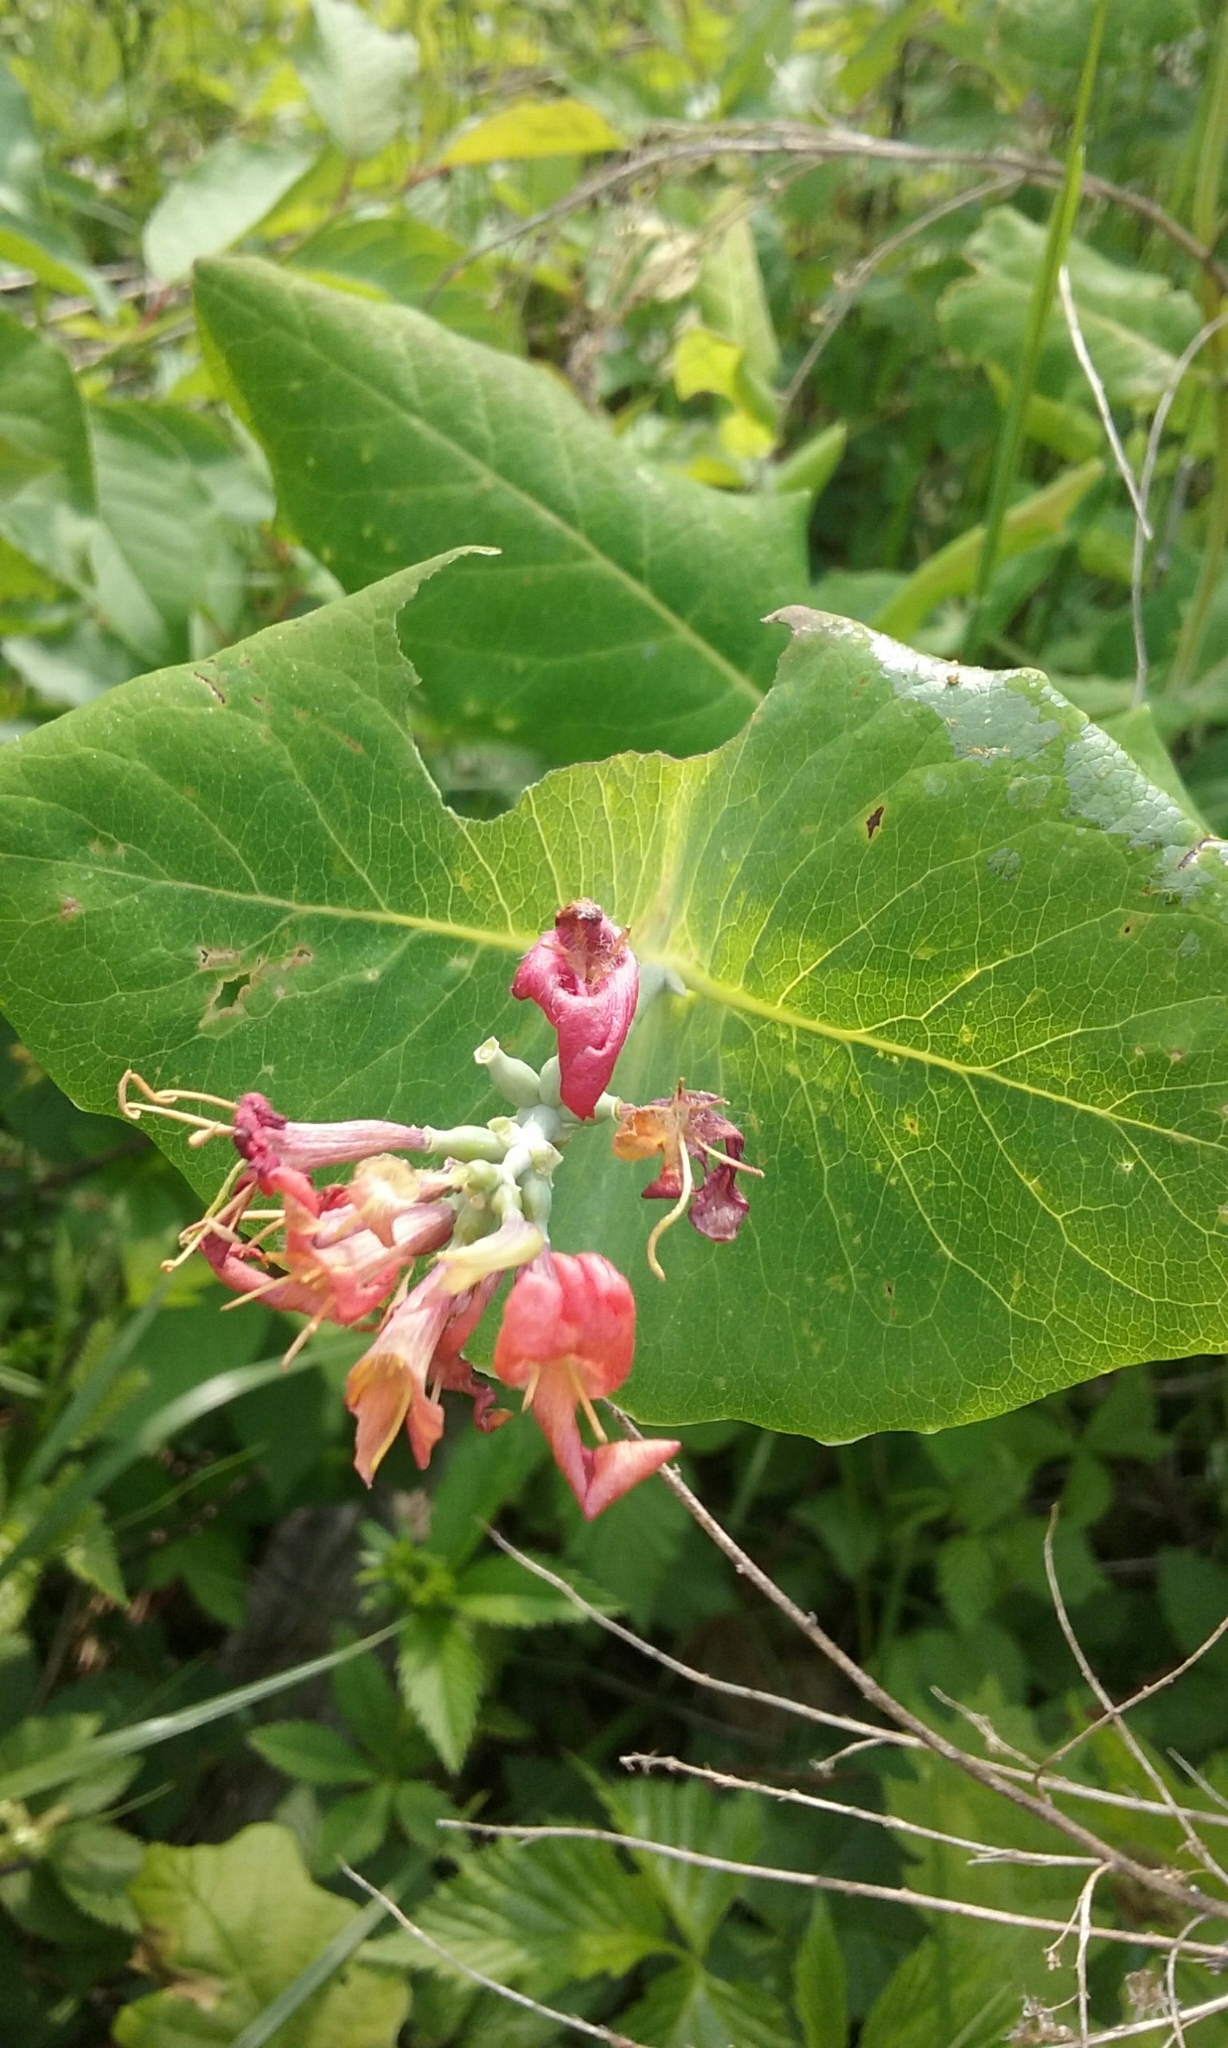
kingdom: Plantae
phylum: Tracheophyta
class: Magnoliopsida
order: Dipsacales
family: Caprifoliaceae
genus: Lonicera
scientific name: Lonicera dioica
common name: Limber honeysuckle
